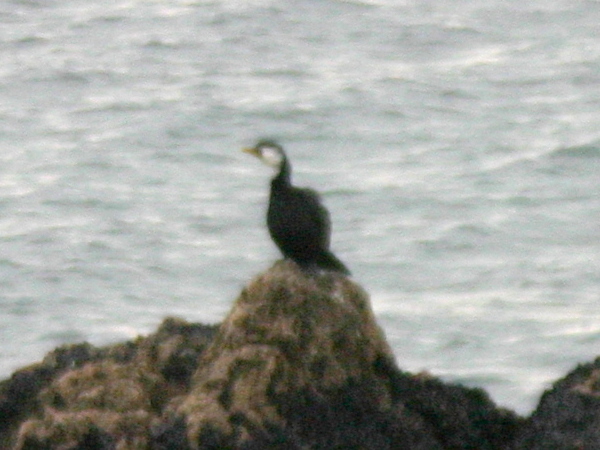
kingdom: Animalia
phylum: Chordata
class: Aves
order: Suliformes
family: Phalacrocoracidae
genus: Microcarbo
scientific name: Microcarbo melanoleucos
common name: Little pied cormorant
